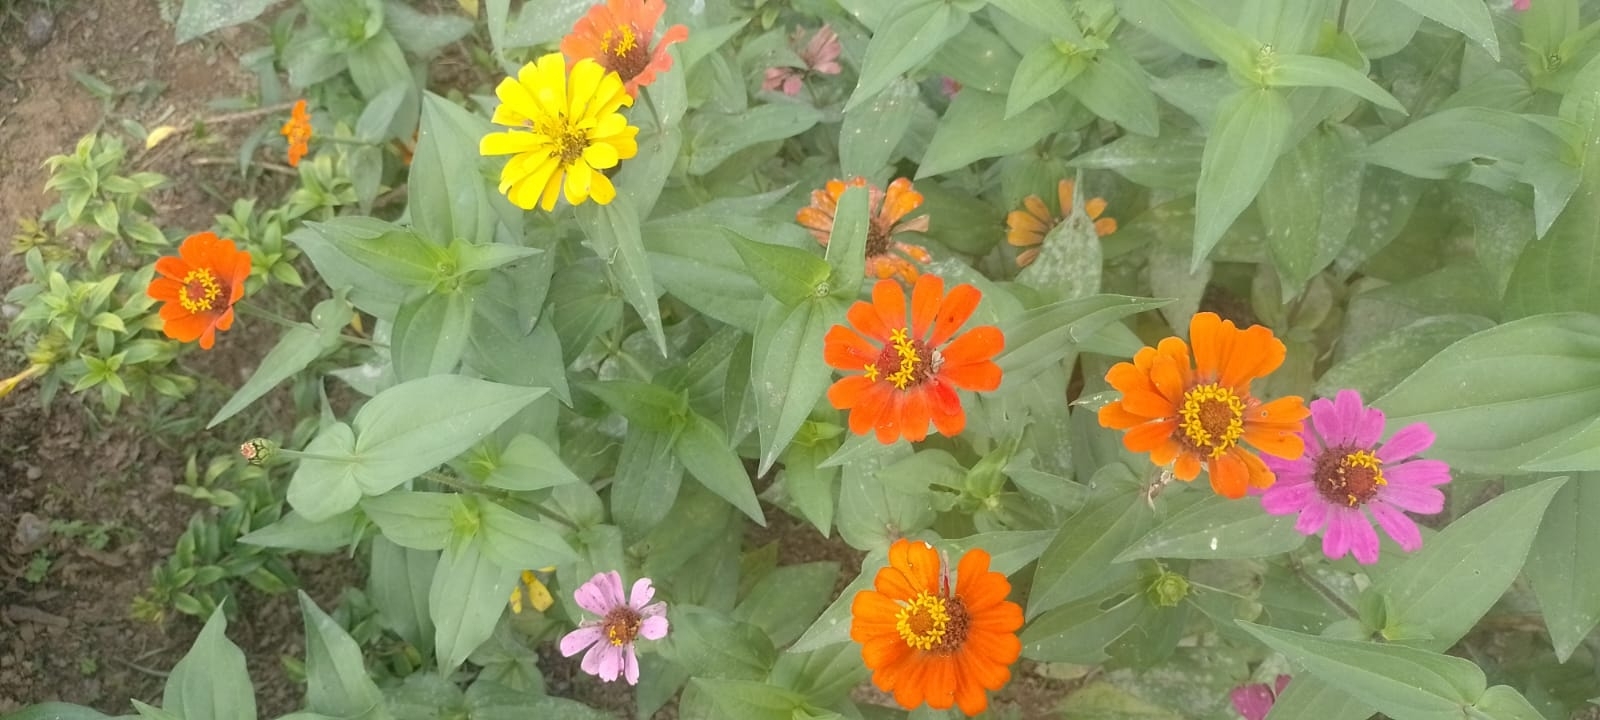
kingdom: Plantae
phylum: Tracheophyta
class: Magnoliopsida
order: Asterales
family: Asteraceae
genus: Zinnia
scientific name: Zinnia elegans
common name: Youth-and-age
